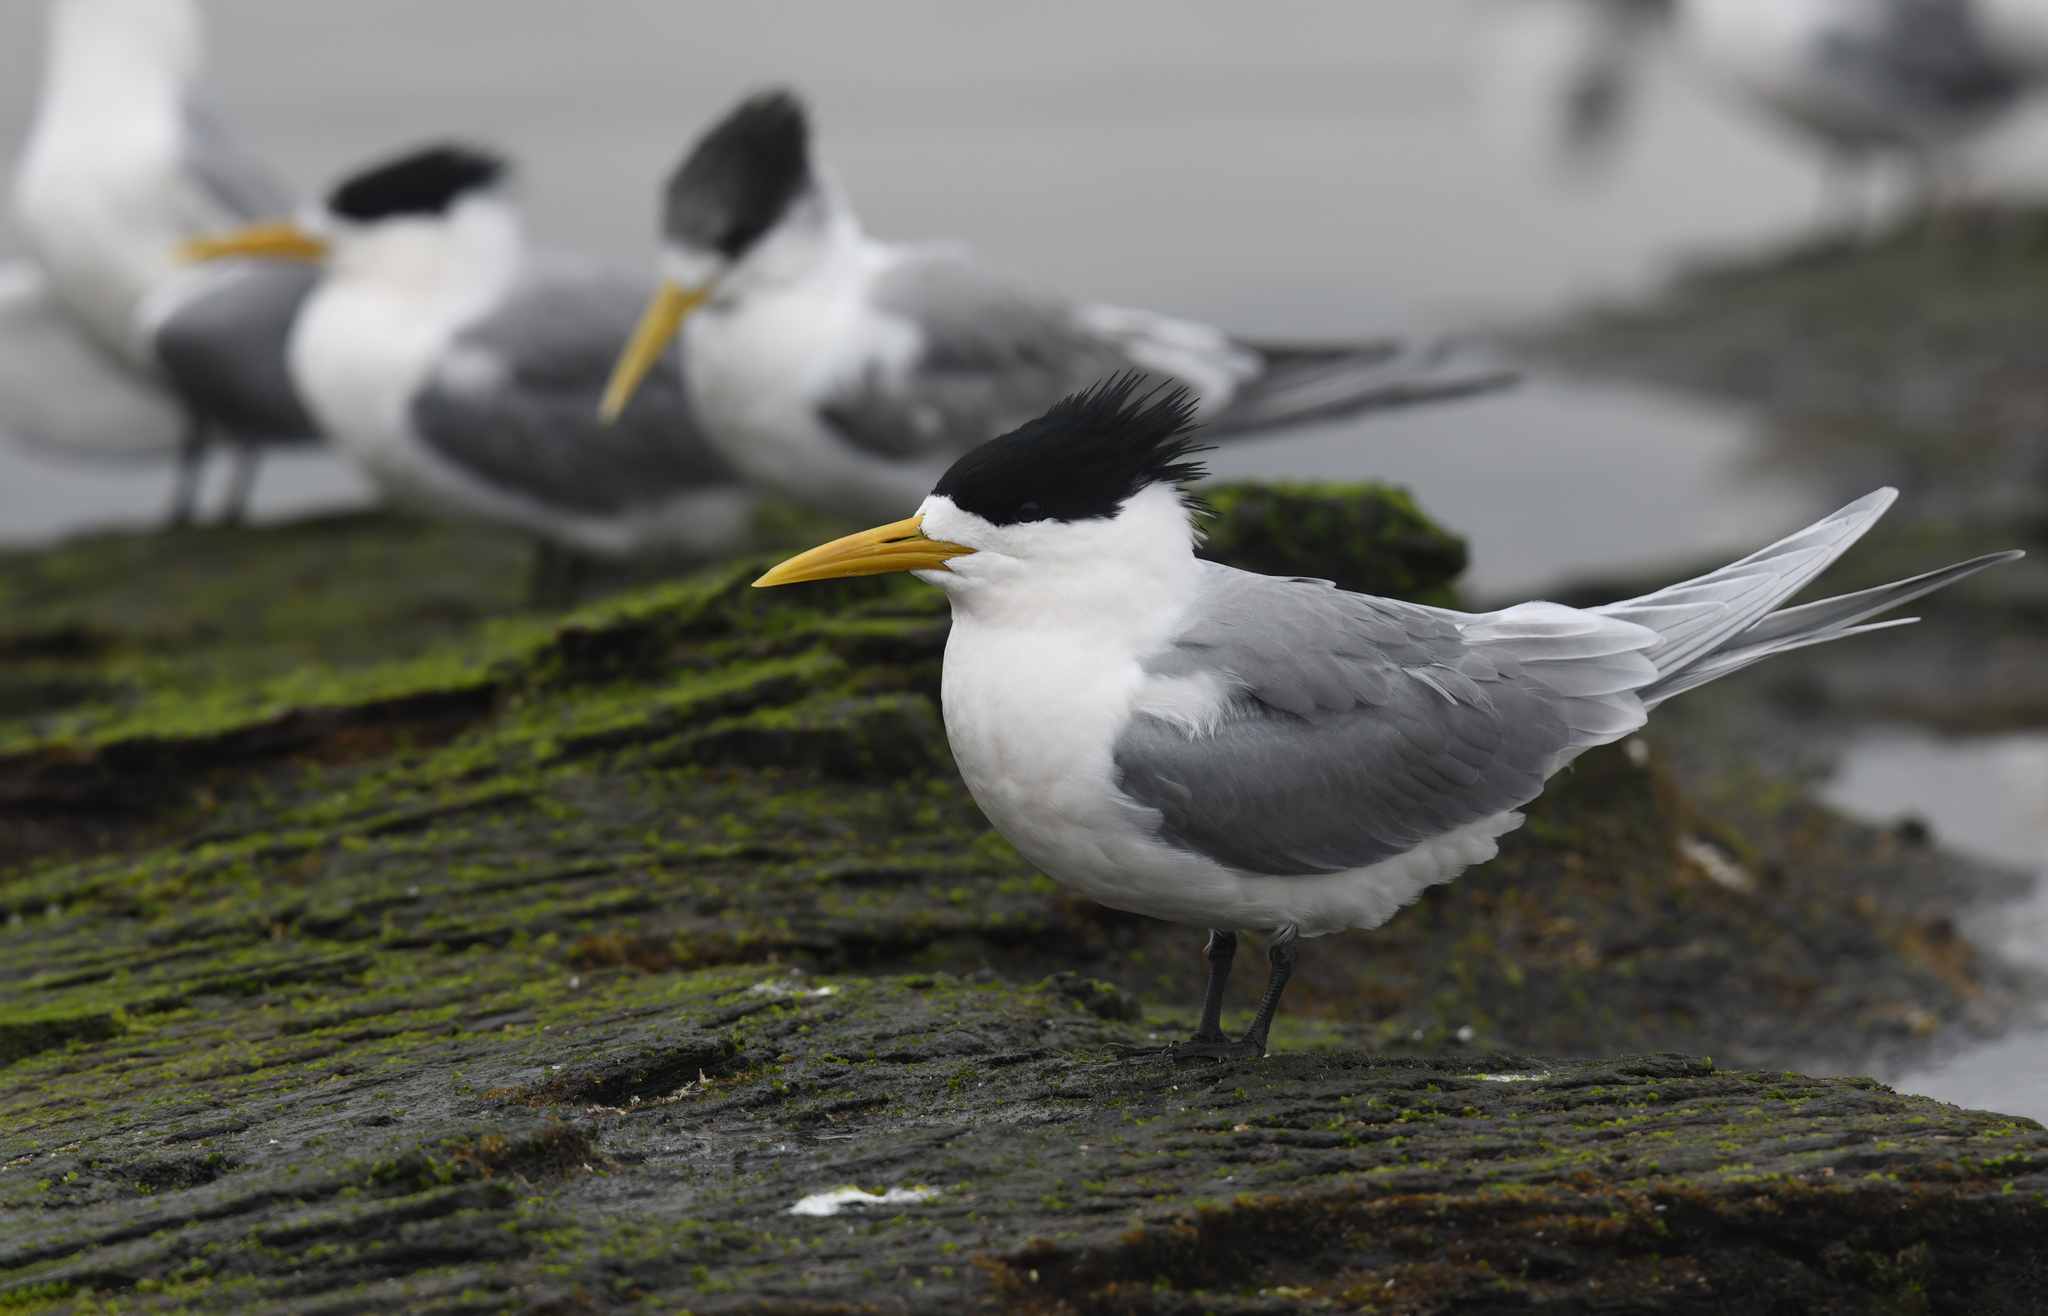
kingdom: Animalia
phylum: Chordata
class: Aves
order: Charadriiformes
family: Laridae
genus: Thalasseus
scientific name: Thalasseus bergii
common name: Greater crested tern
